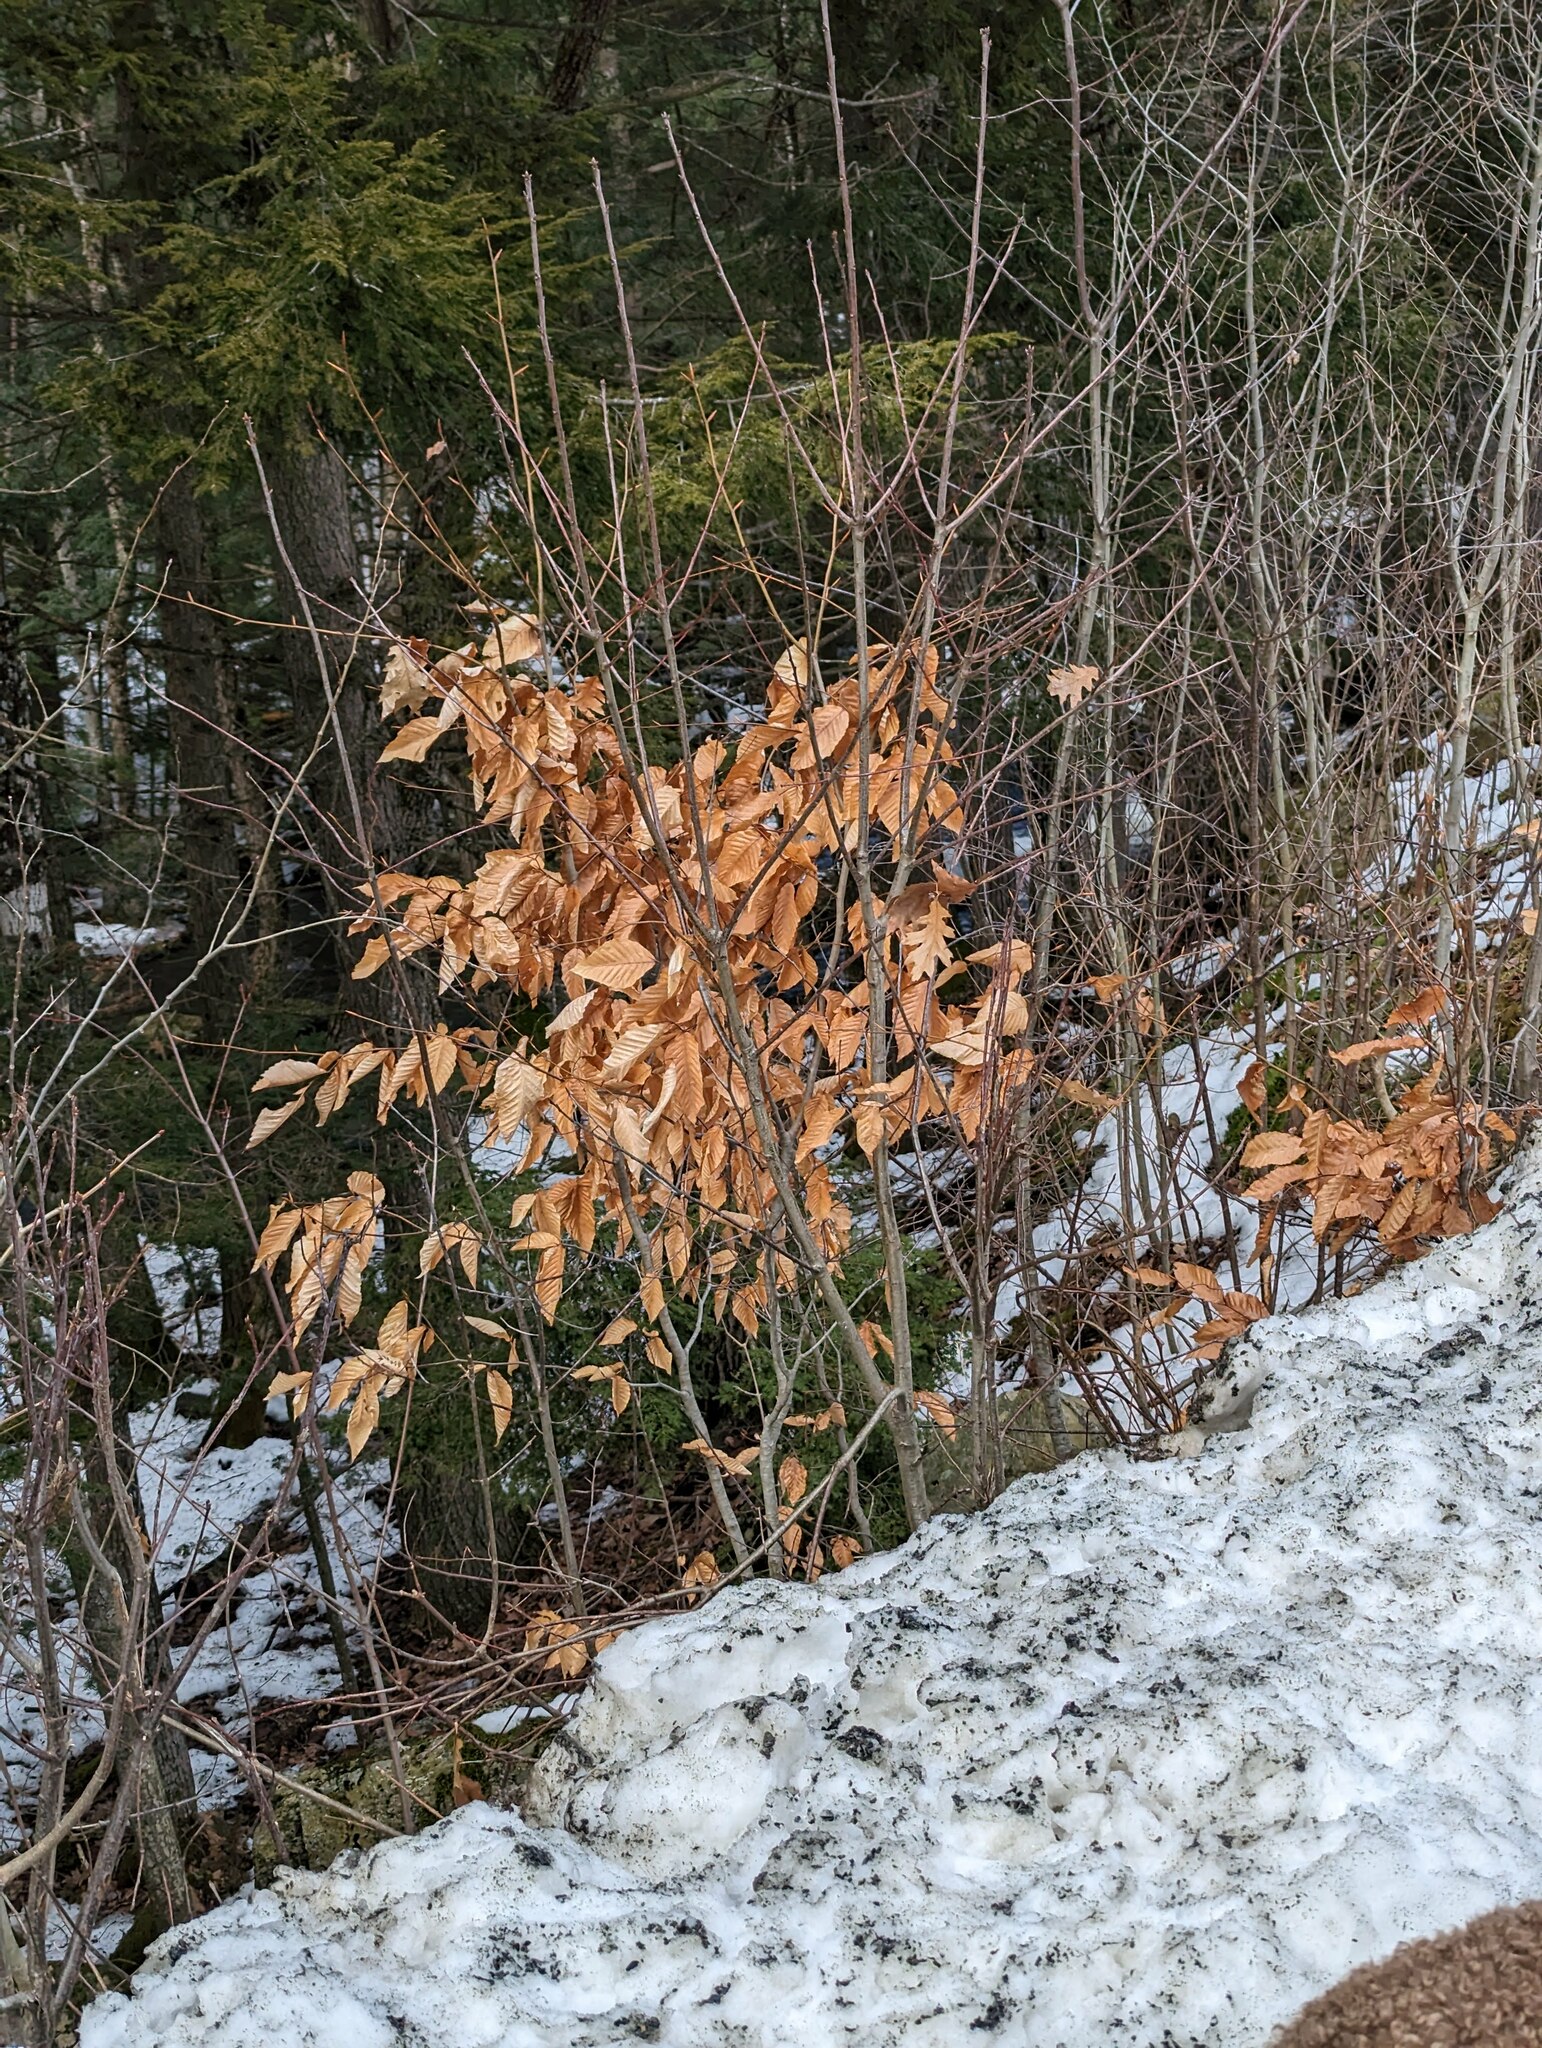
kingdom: Plantae
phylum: Tracheophyta
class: Magnoliopsida
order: Fagales
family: Fagaceae
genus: Fagus
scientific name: Fagus grandifolia
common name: American beech
